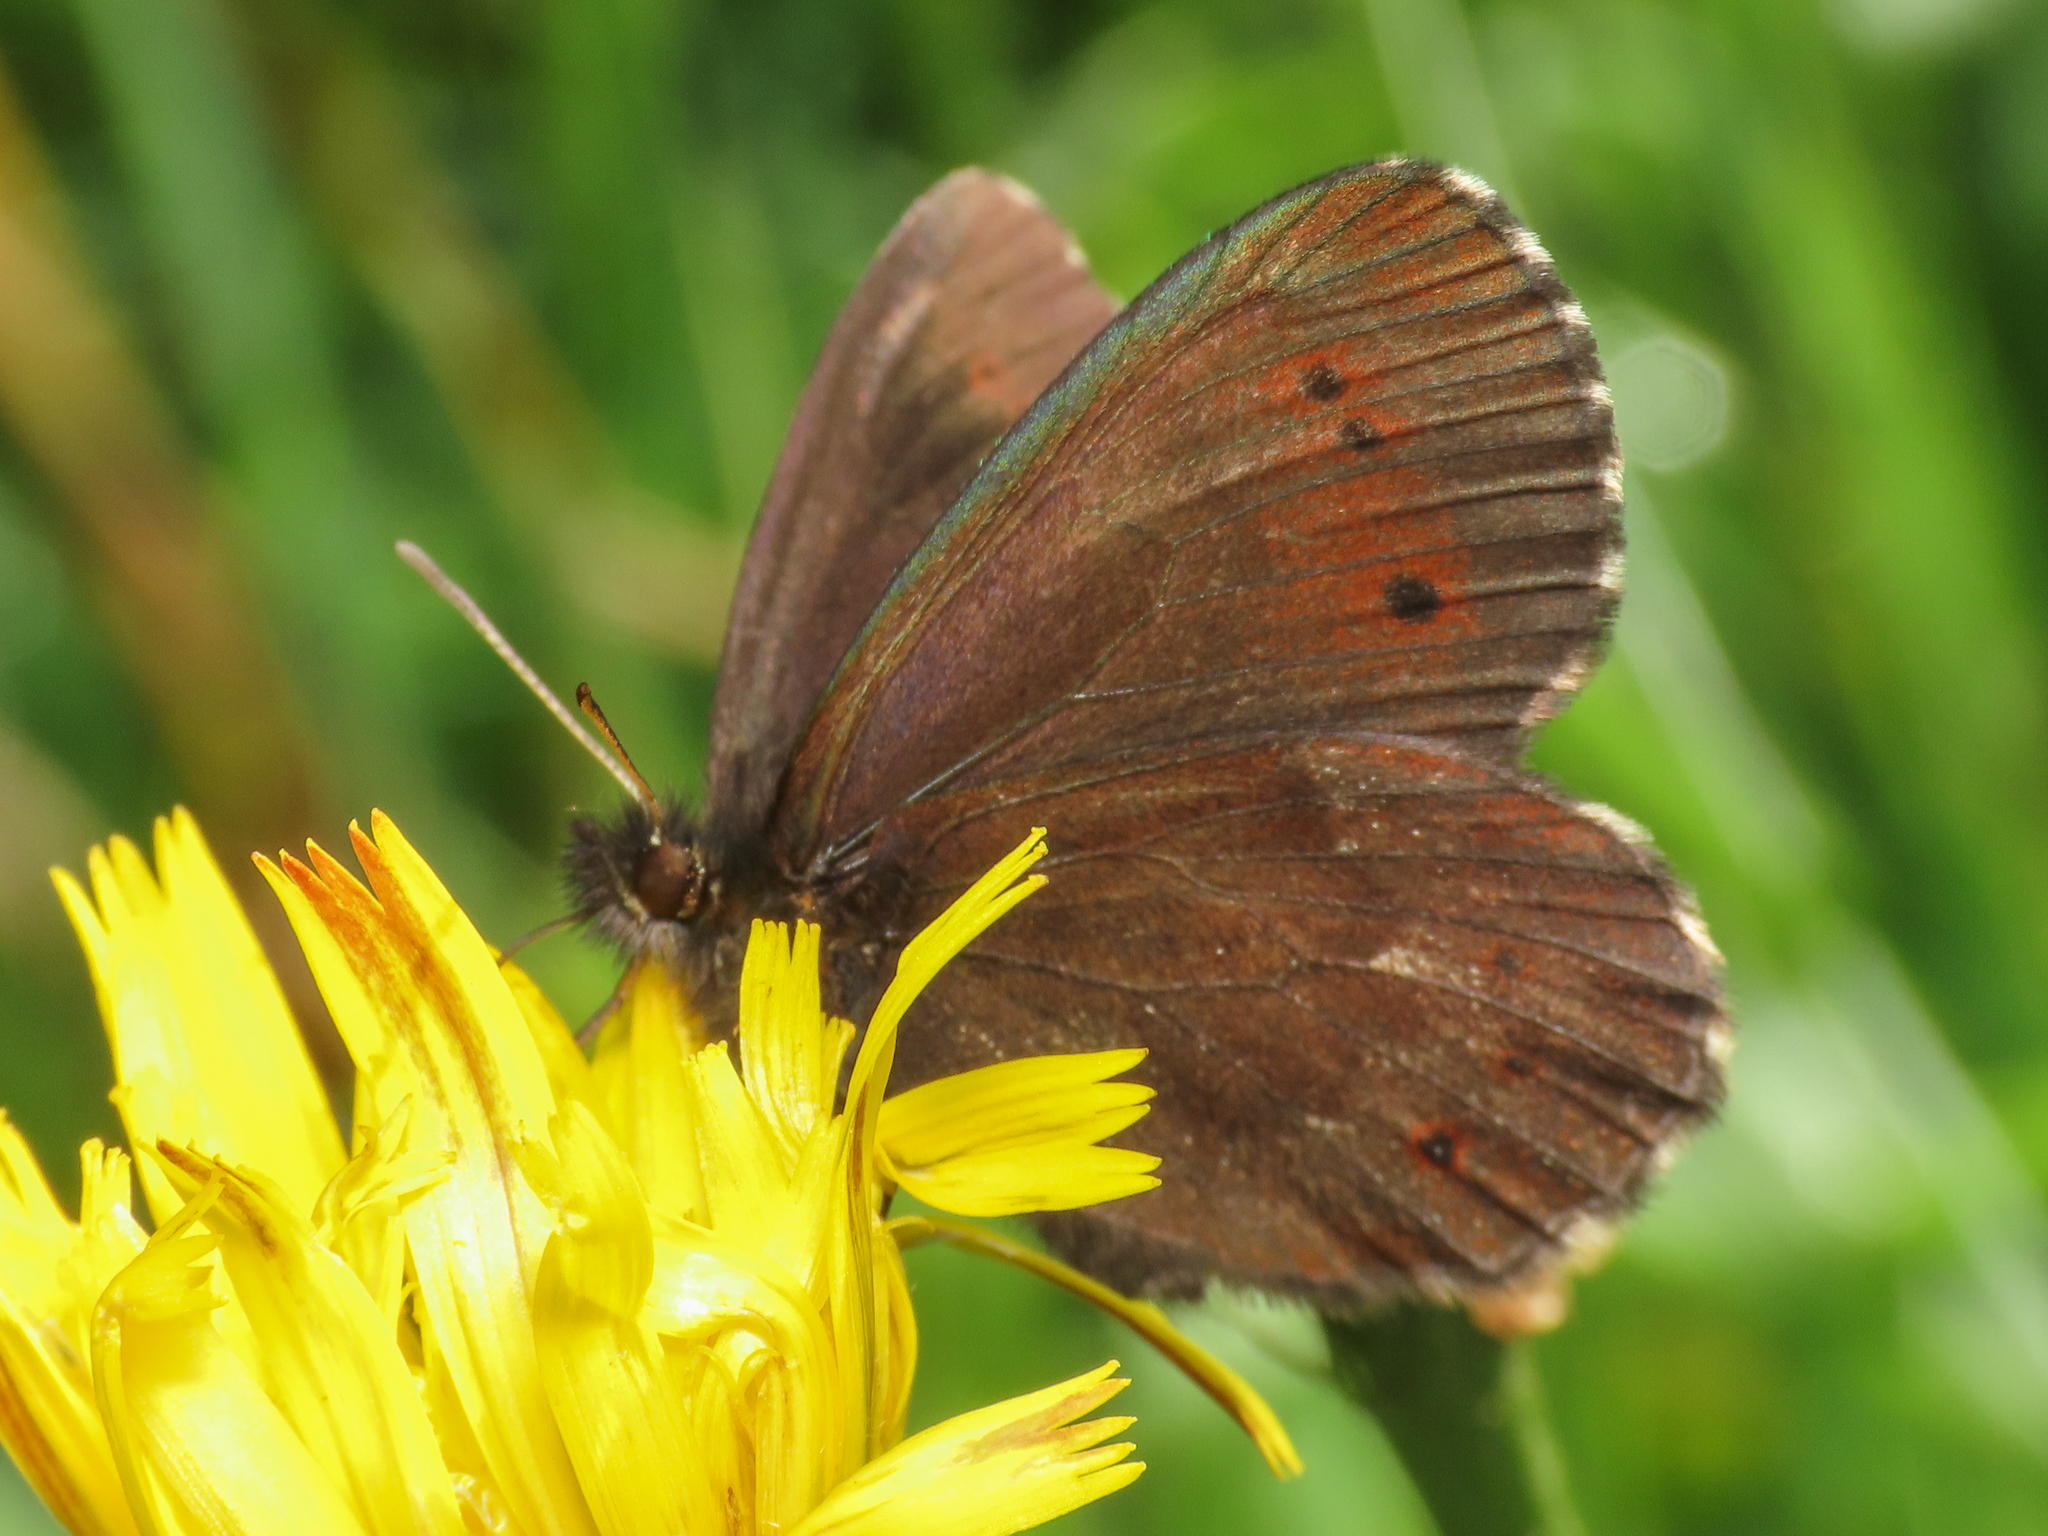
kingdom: Animalia
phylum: Arthropoda
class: Insecta
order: Lepidoptera
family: Nymphalidae
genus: Erebia
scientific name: Erebia euryale
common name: Large ringlet
